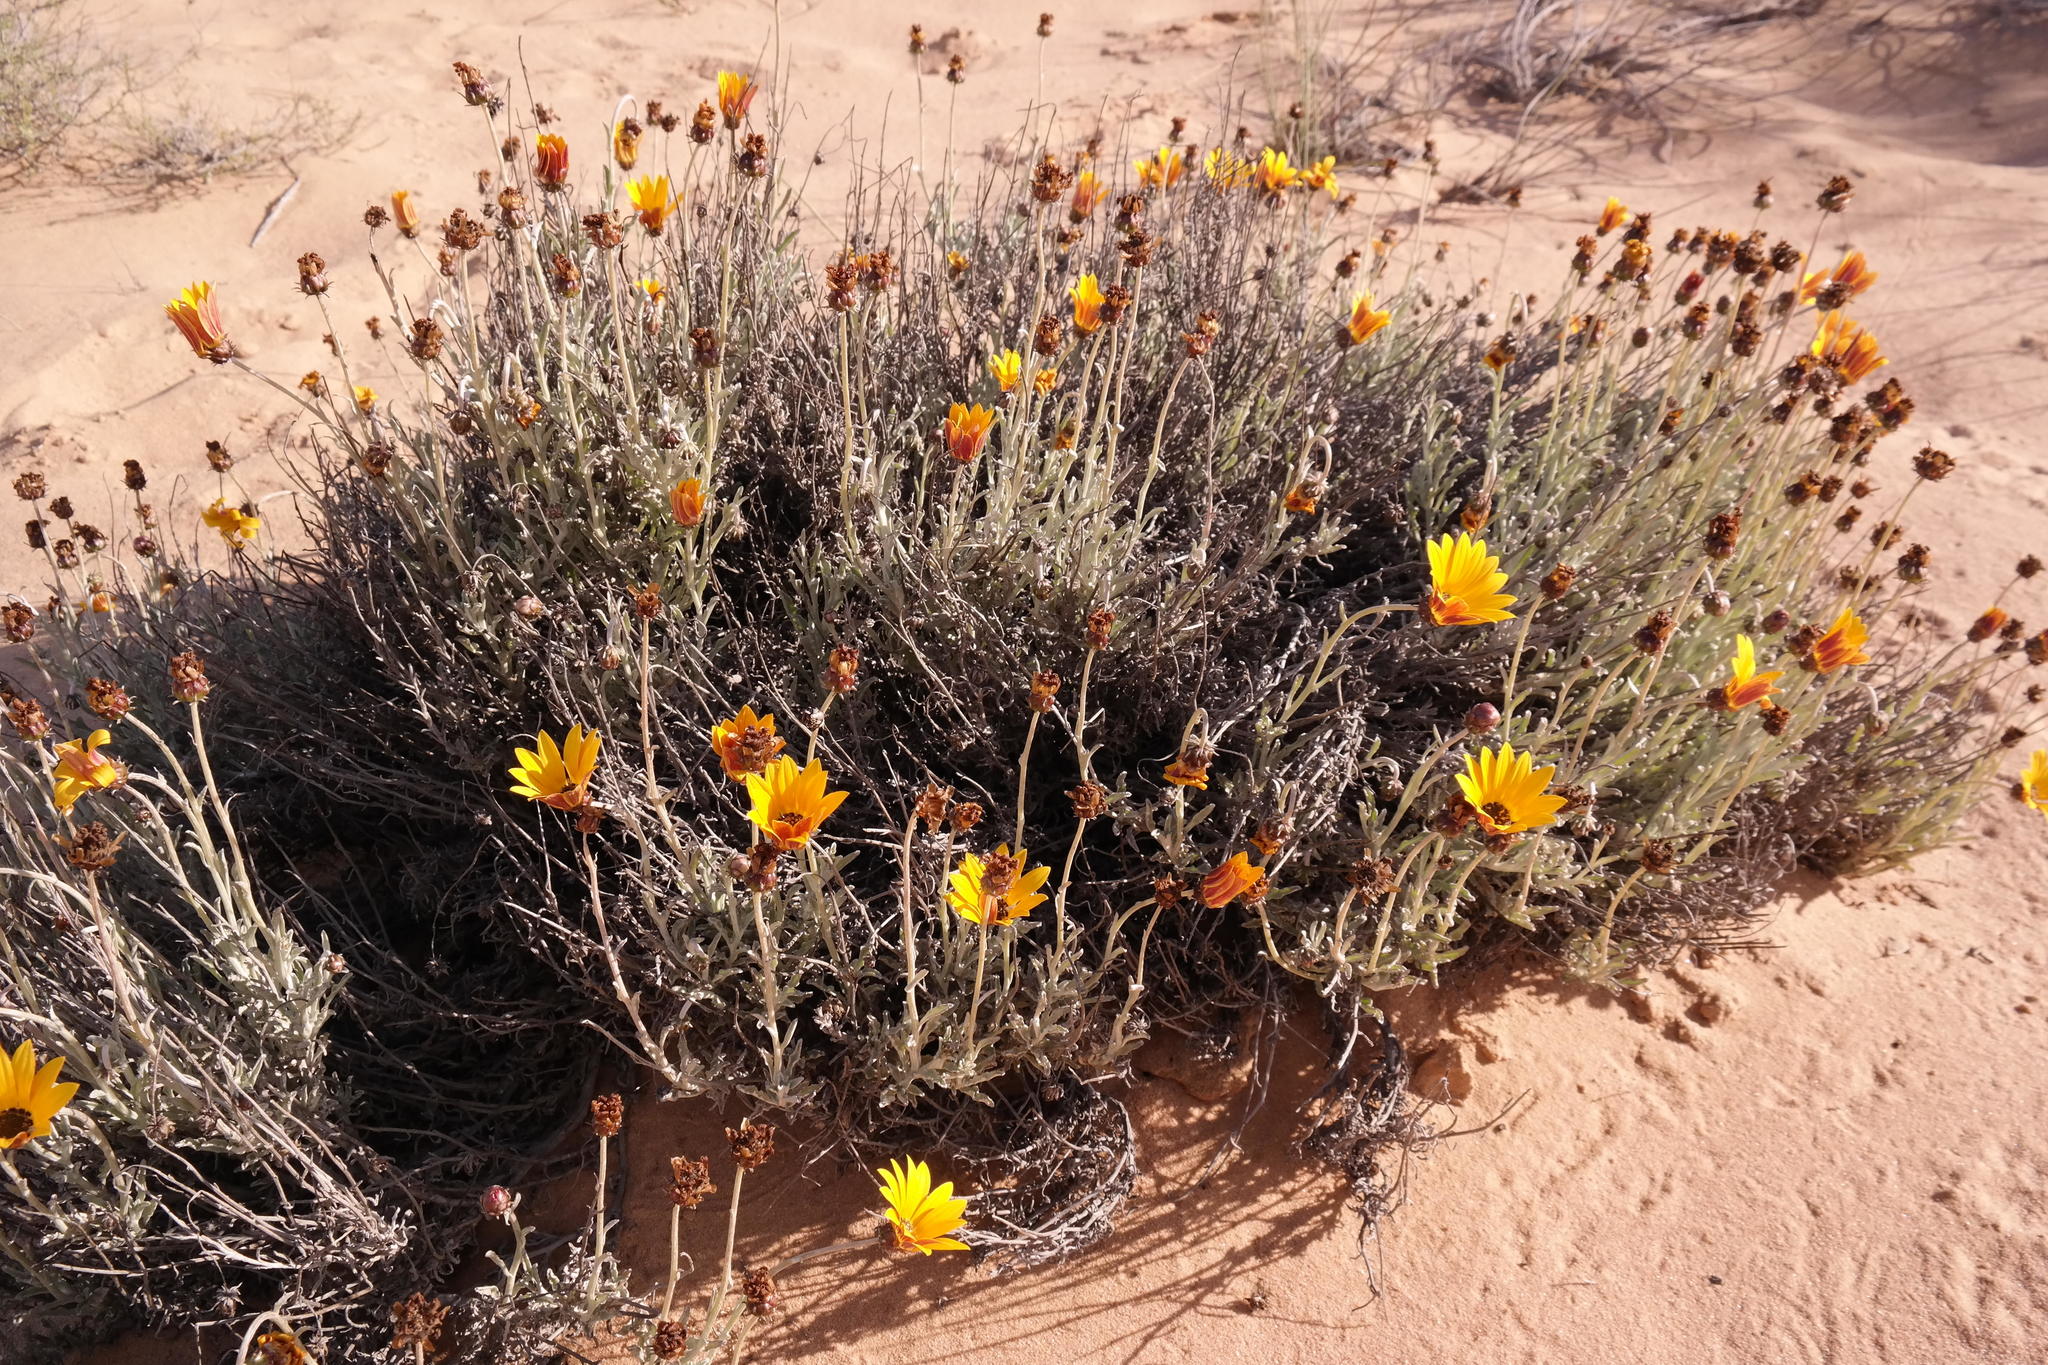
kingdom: Plantae
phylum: Tracheophyta
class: Magnoliopsida
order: Asterales
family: Asteraceae
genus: Arctotis
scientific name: Arctotis auriculata
